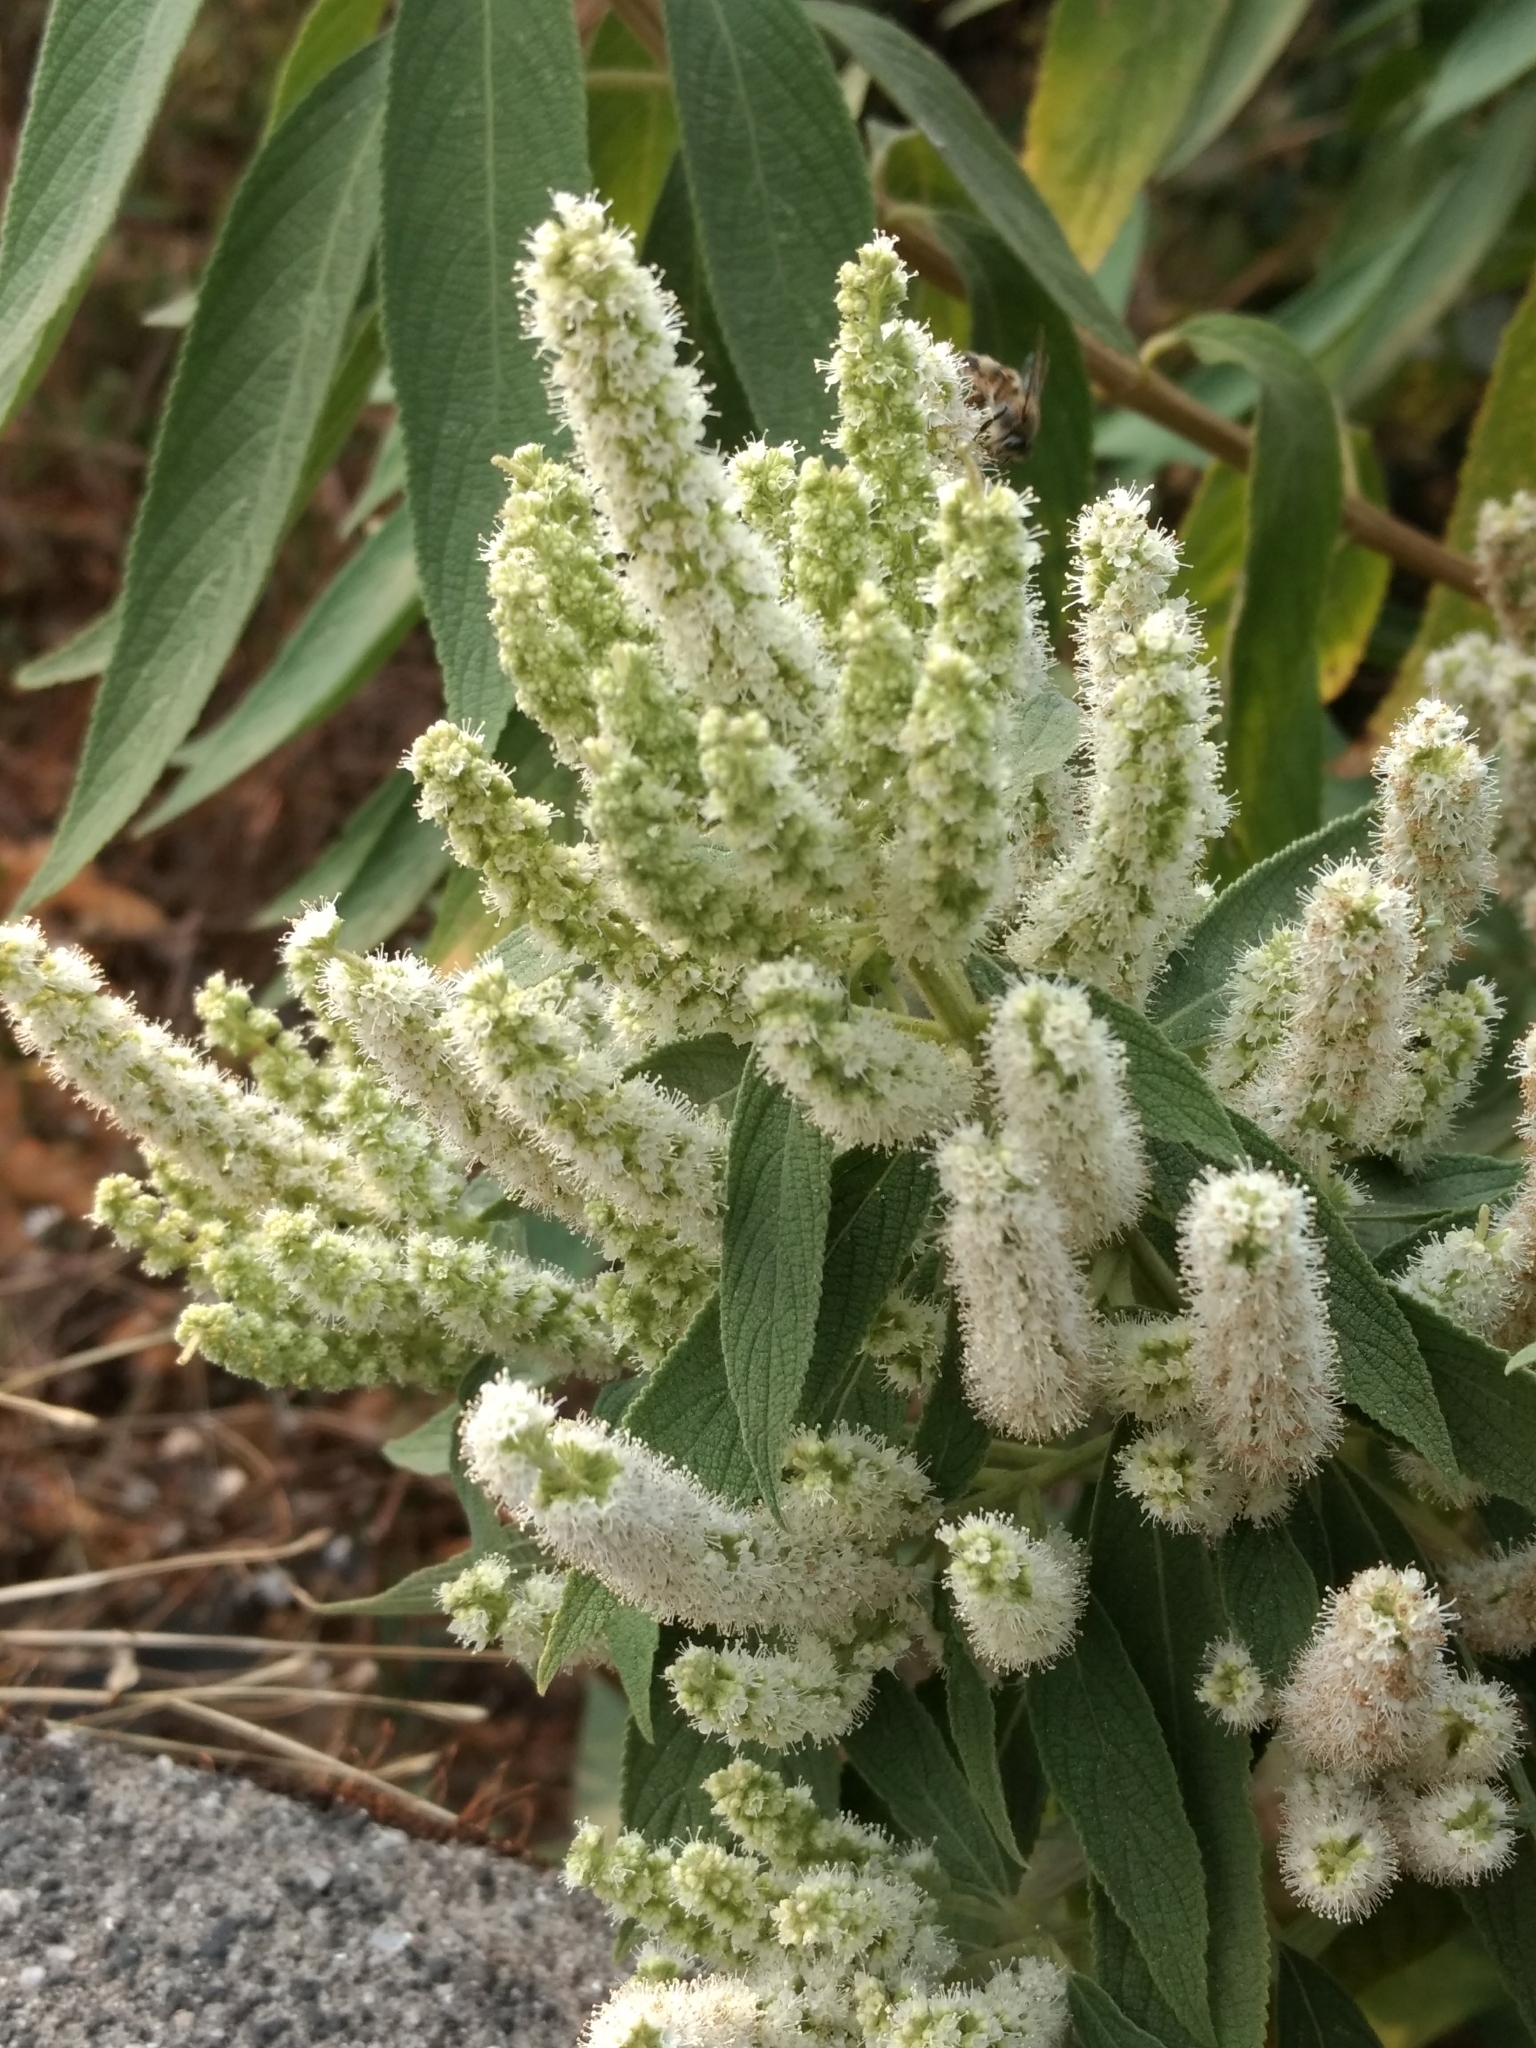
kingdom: Plantae
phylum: Tracheophyta
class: Magnoliopsida
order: Lamiales
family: Lamiaceae
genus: Colebrookea
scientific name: Colebrookea oppositifolia
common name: Indian squirrel tail
